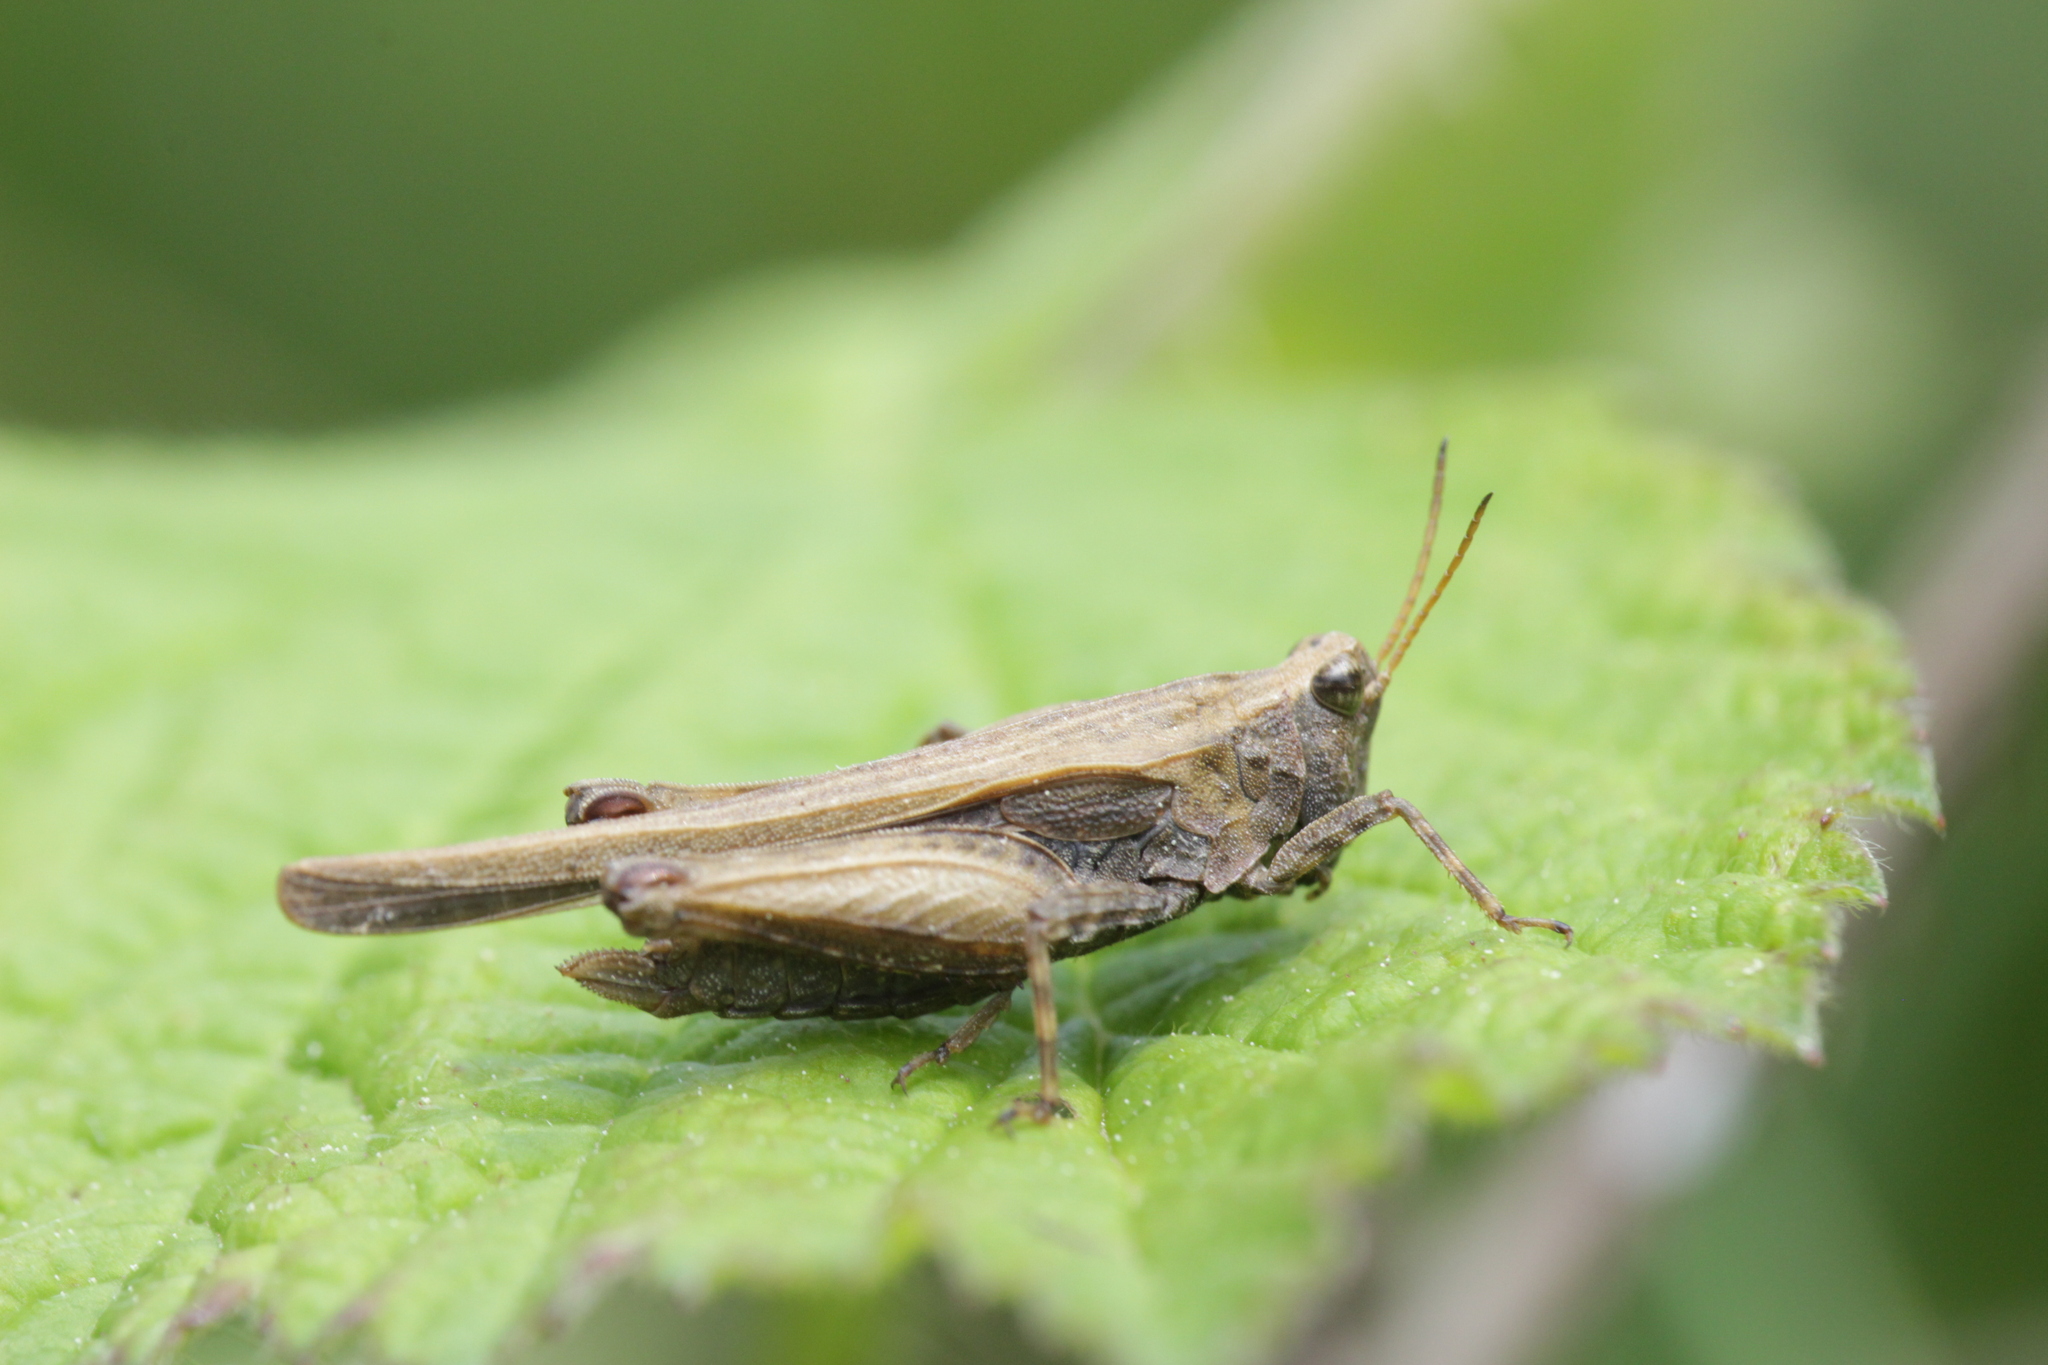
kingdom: Animalia
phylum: Arthropoda
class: Insecta
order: Orthoptera
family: Tetrigidae
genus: Tetrix
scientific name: Tetrix subulata
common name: Slender ground-hopper
